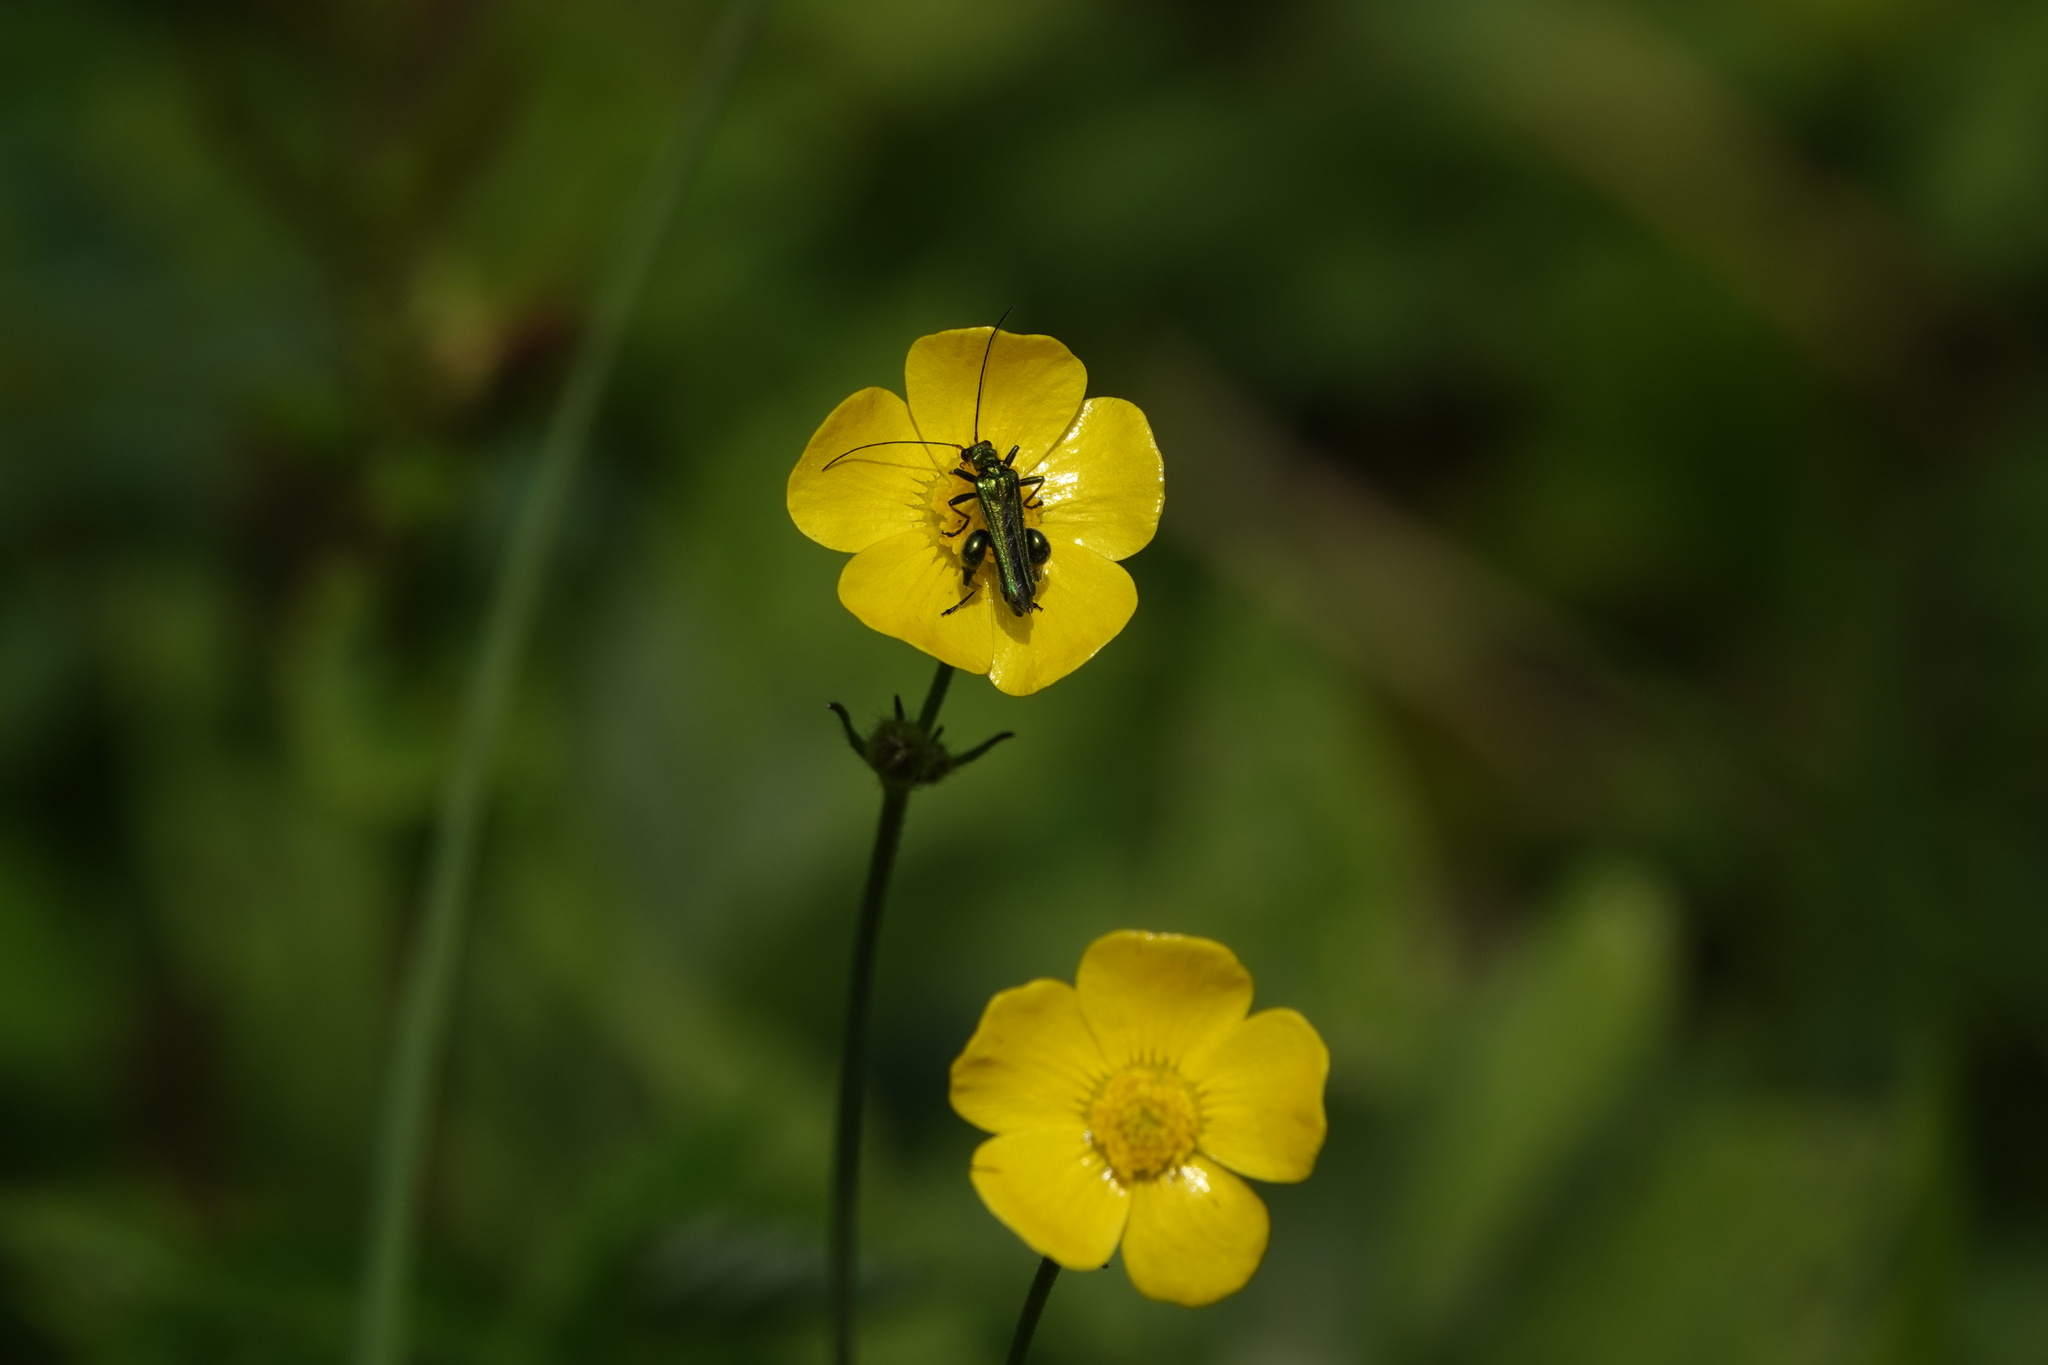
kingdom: Animalia
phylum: Arthropoda
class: Insecta
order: Coleoptera
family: Oedemeridae
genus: Oedemera
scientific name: Oedemera nobilis
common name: Swollen-thighed beetle
